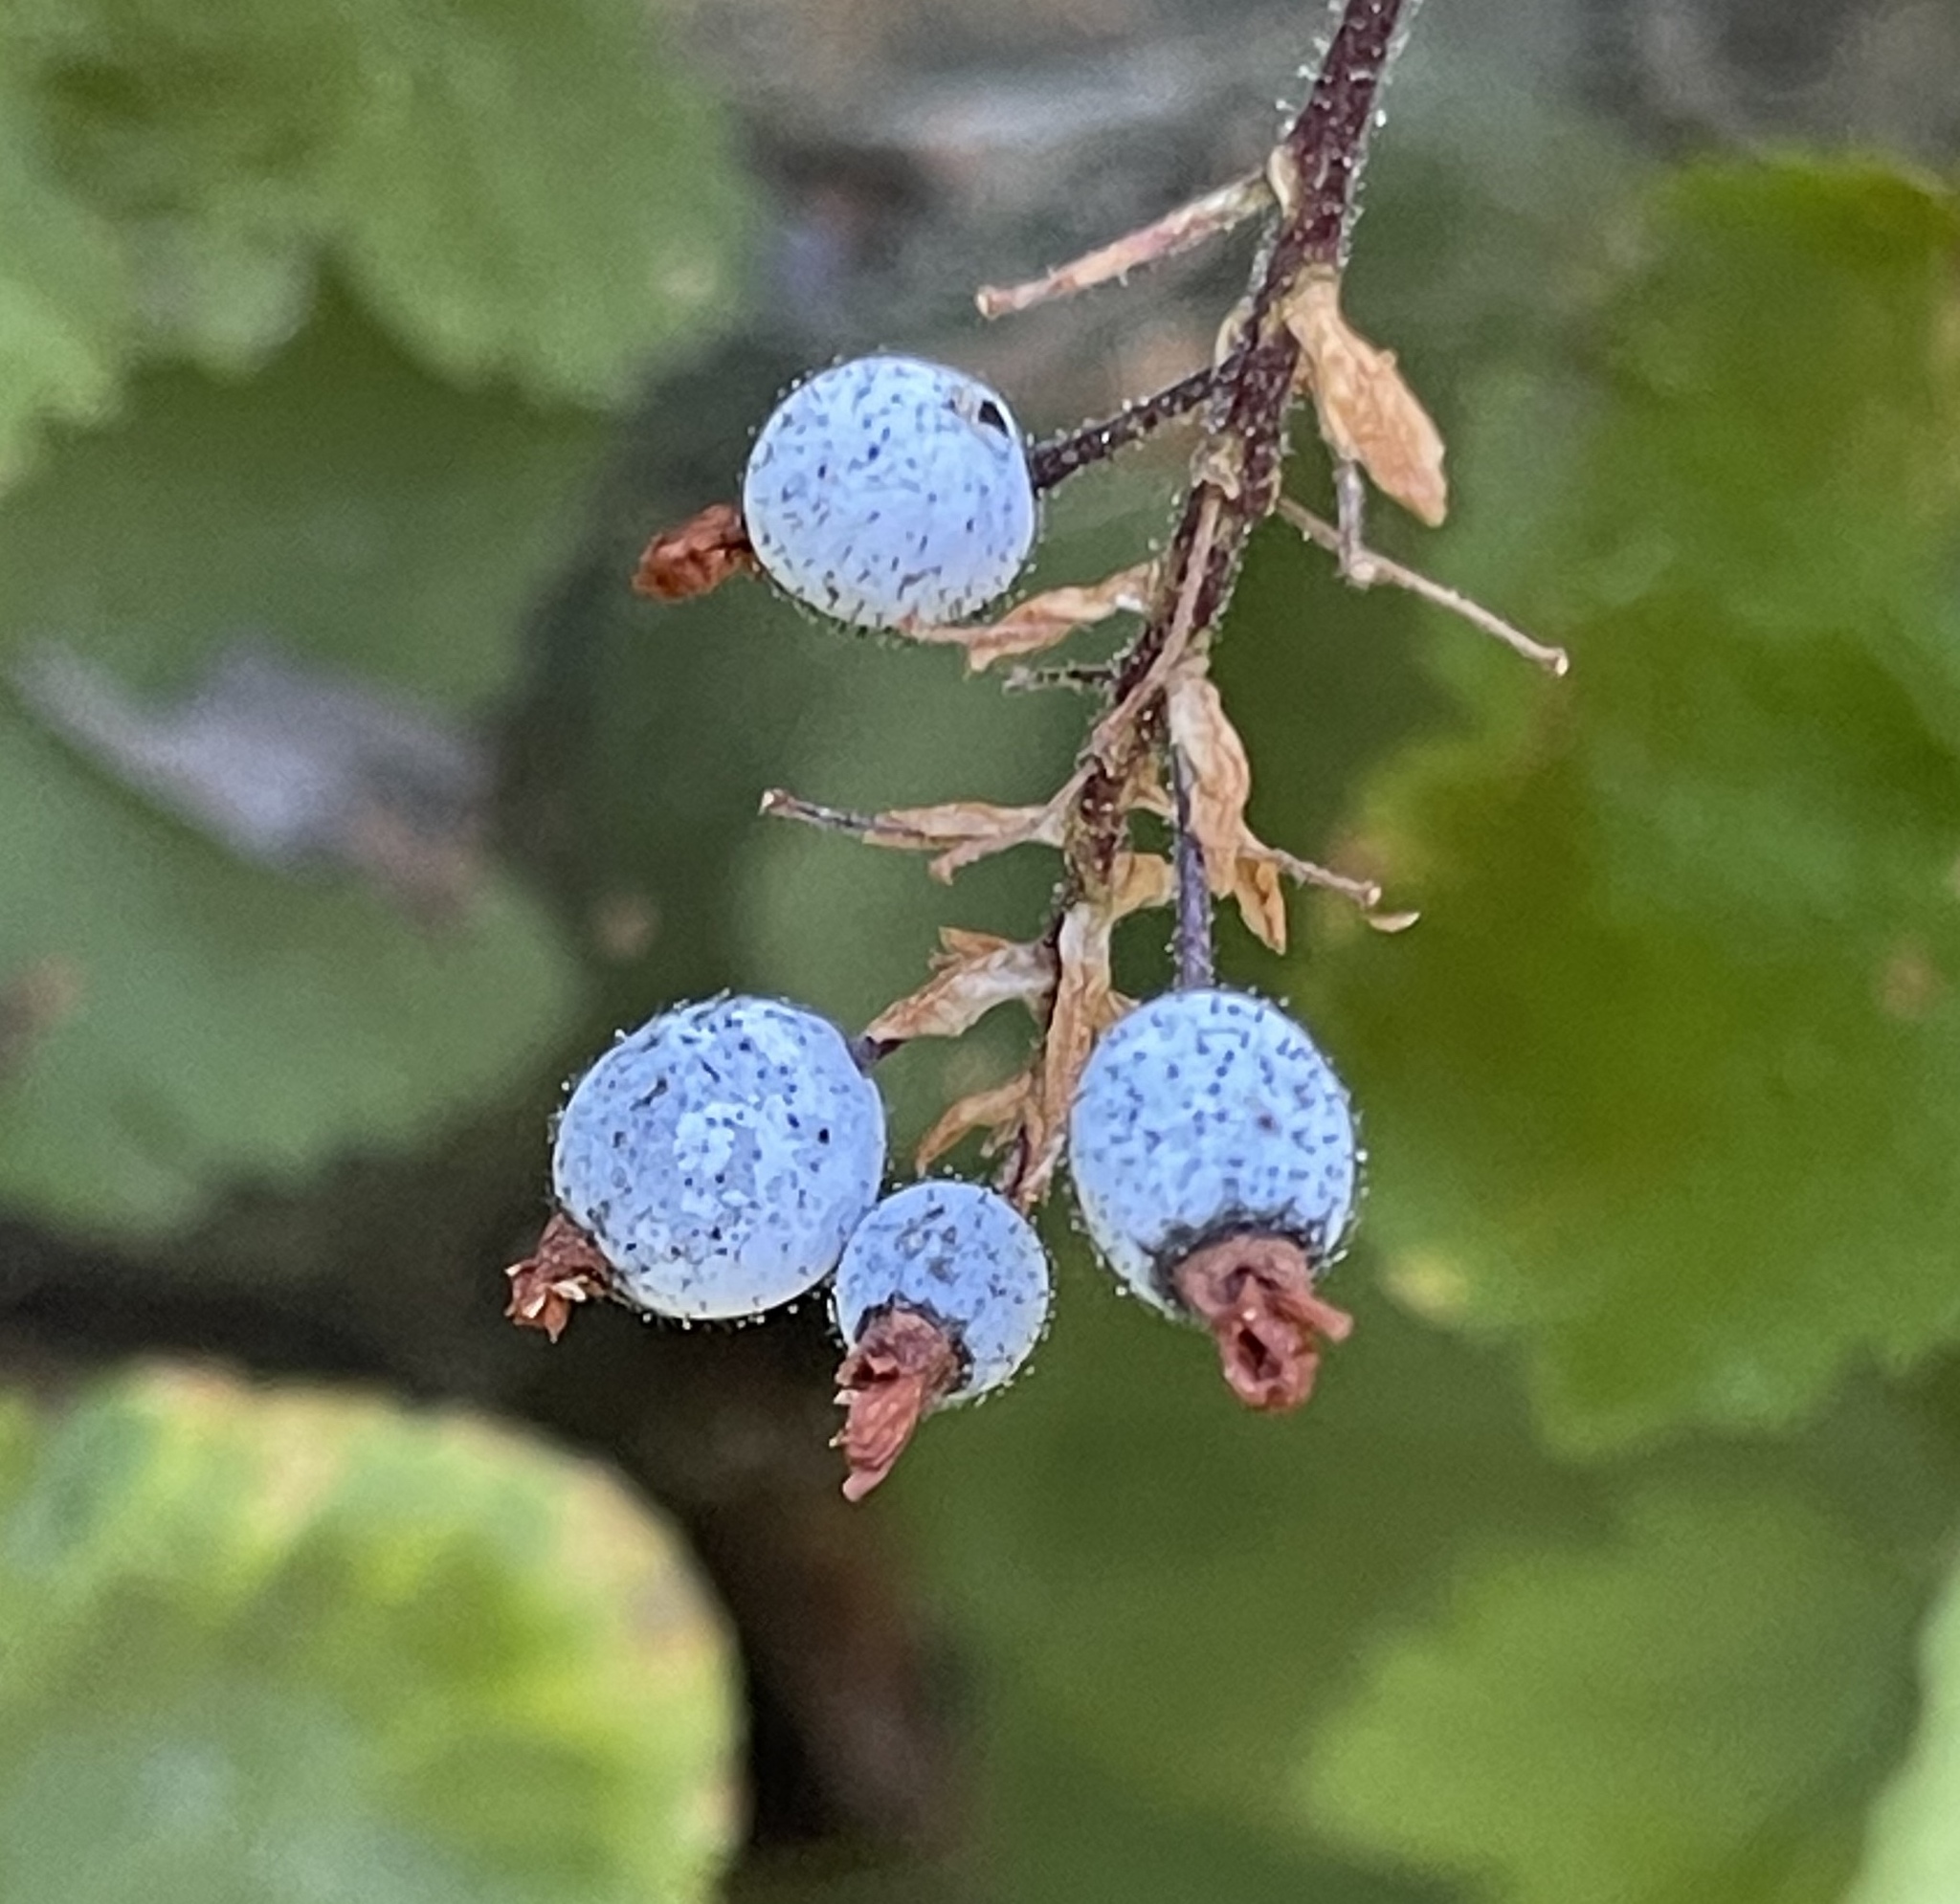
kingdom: Plantae
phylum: Tracheophyta
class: Magnoliopsida
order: Saxifragales
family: Grossulariaceae
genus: Ribes
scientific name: Ribes nevadense
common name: Mountain pink currant
